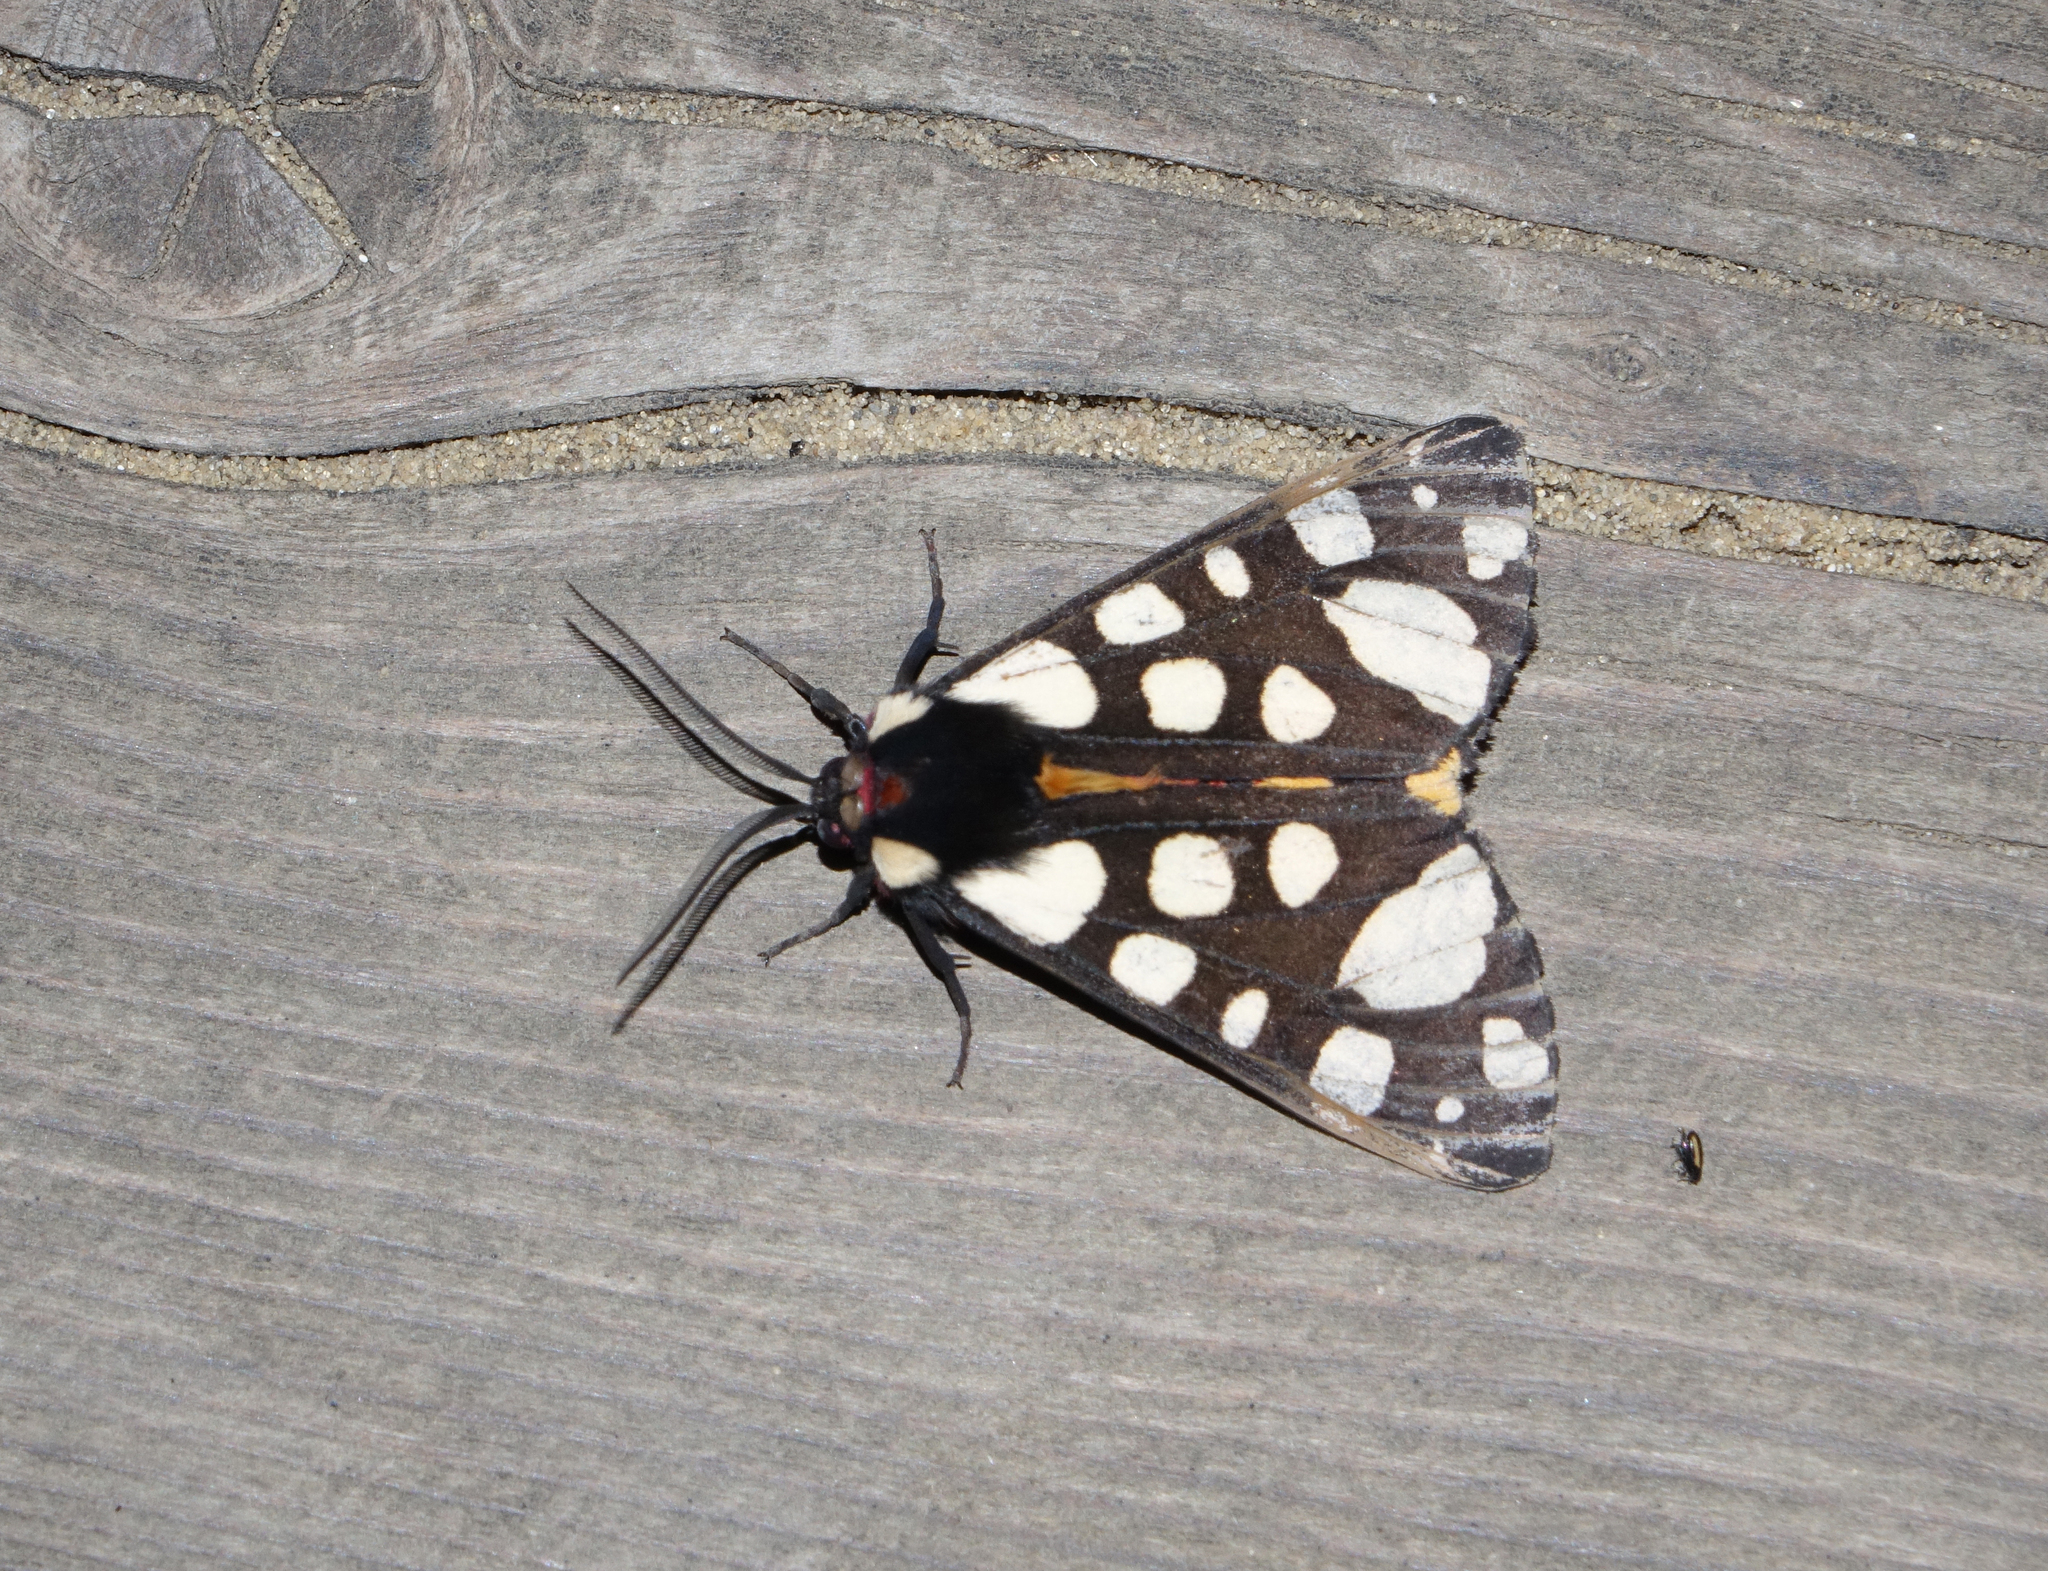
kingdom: Animalia
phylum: Arthropoda
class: Insecta
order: Lepidoptera
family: Erebidae
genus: Epicallia
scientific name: Epicallia villica
